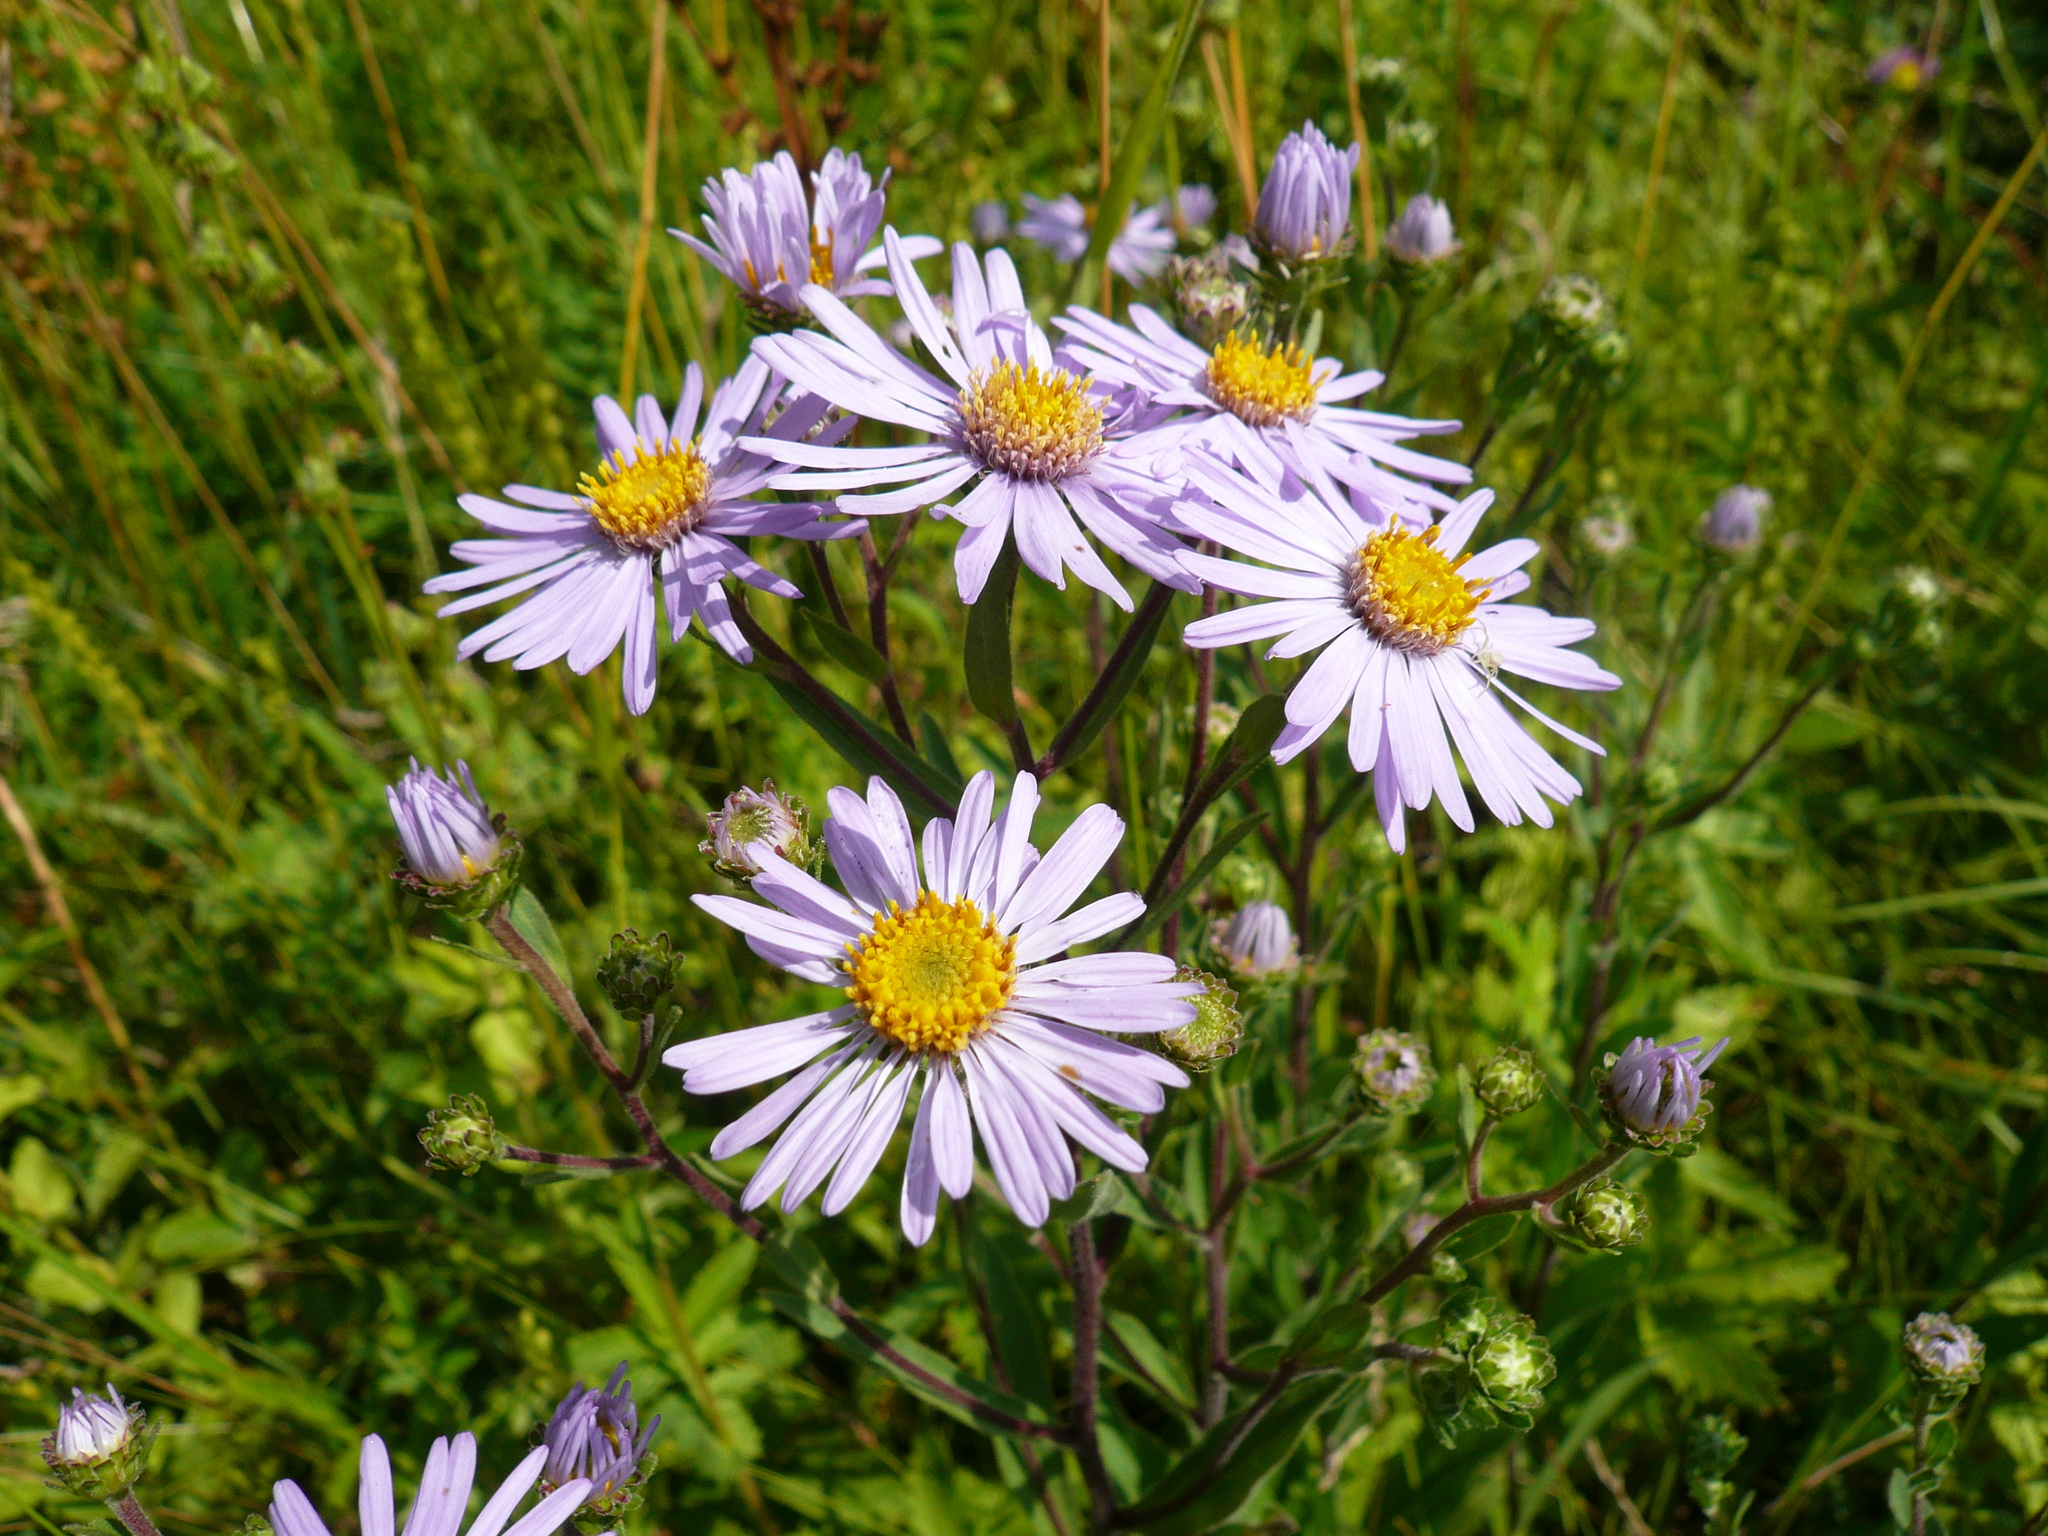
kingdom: Plantae
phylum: Tracheophyta
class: Magnoliopsida
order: Asterales
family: Asteraceae
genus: Aster
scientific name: Aster amellus
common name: European michaelmas daisy
